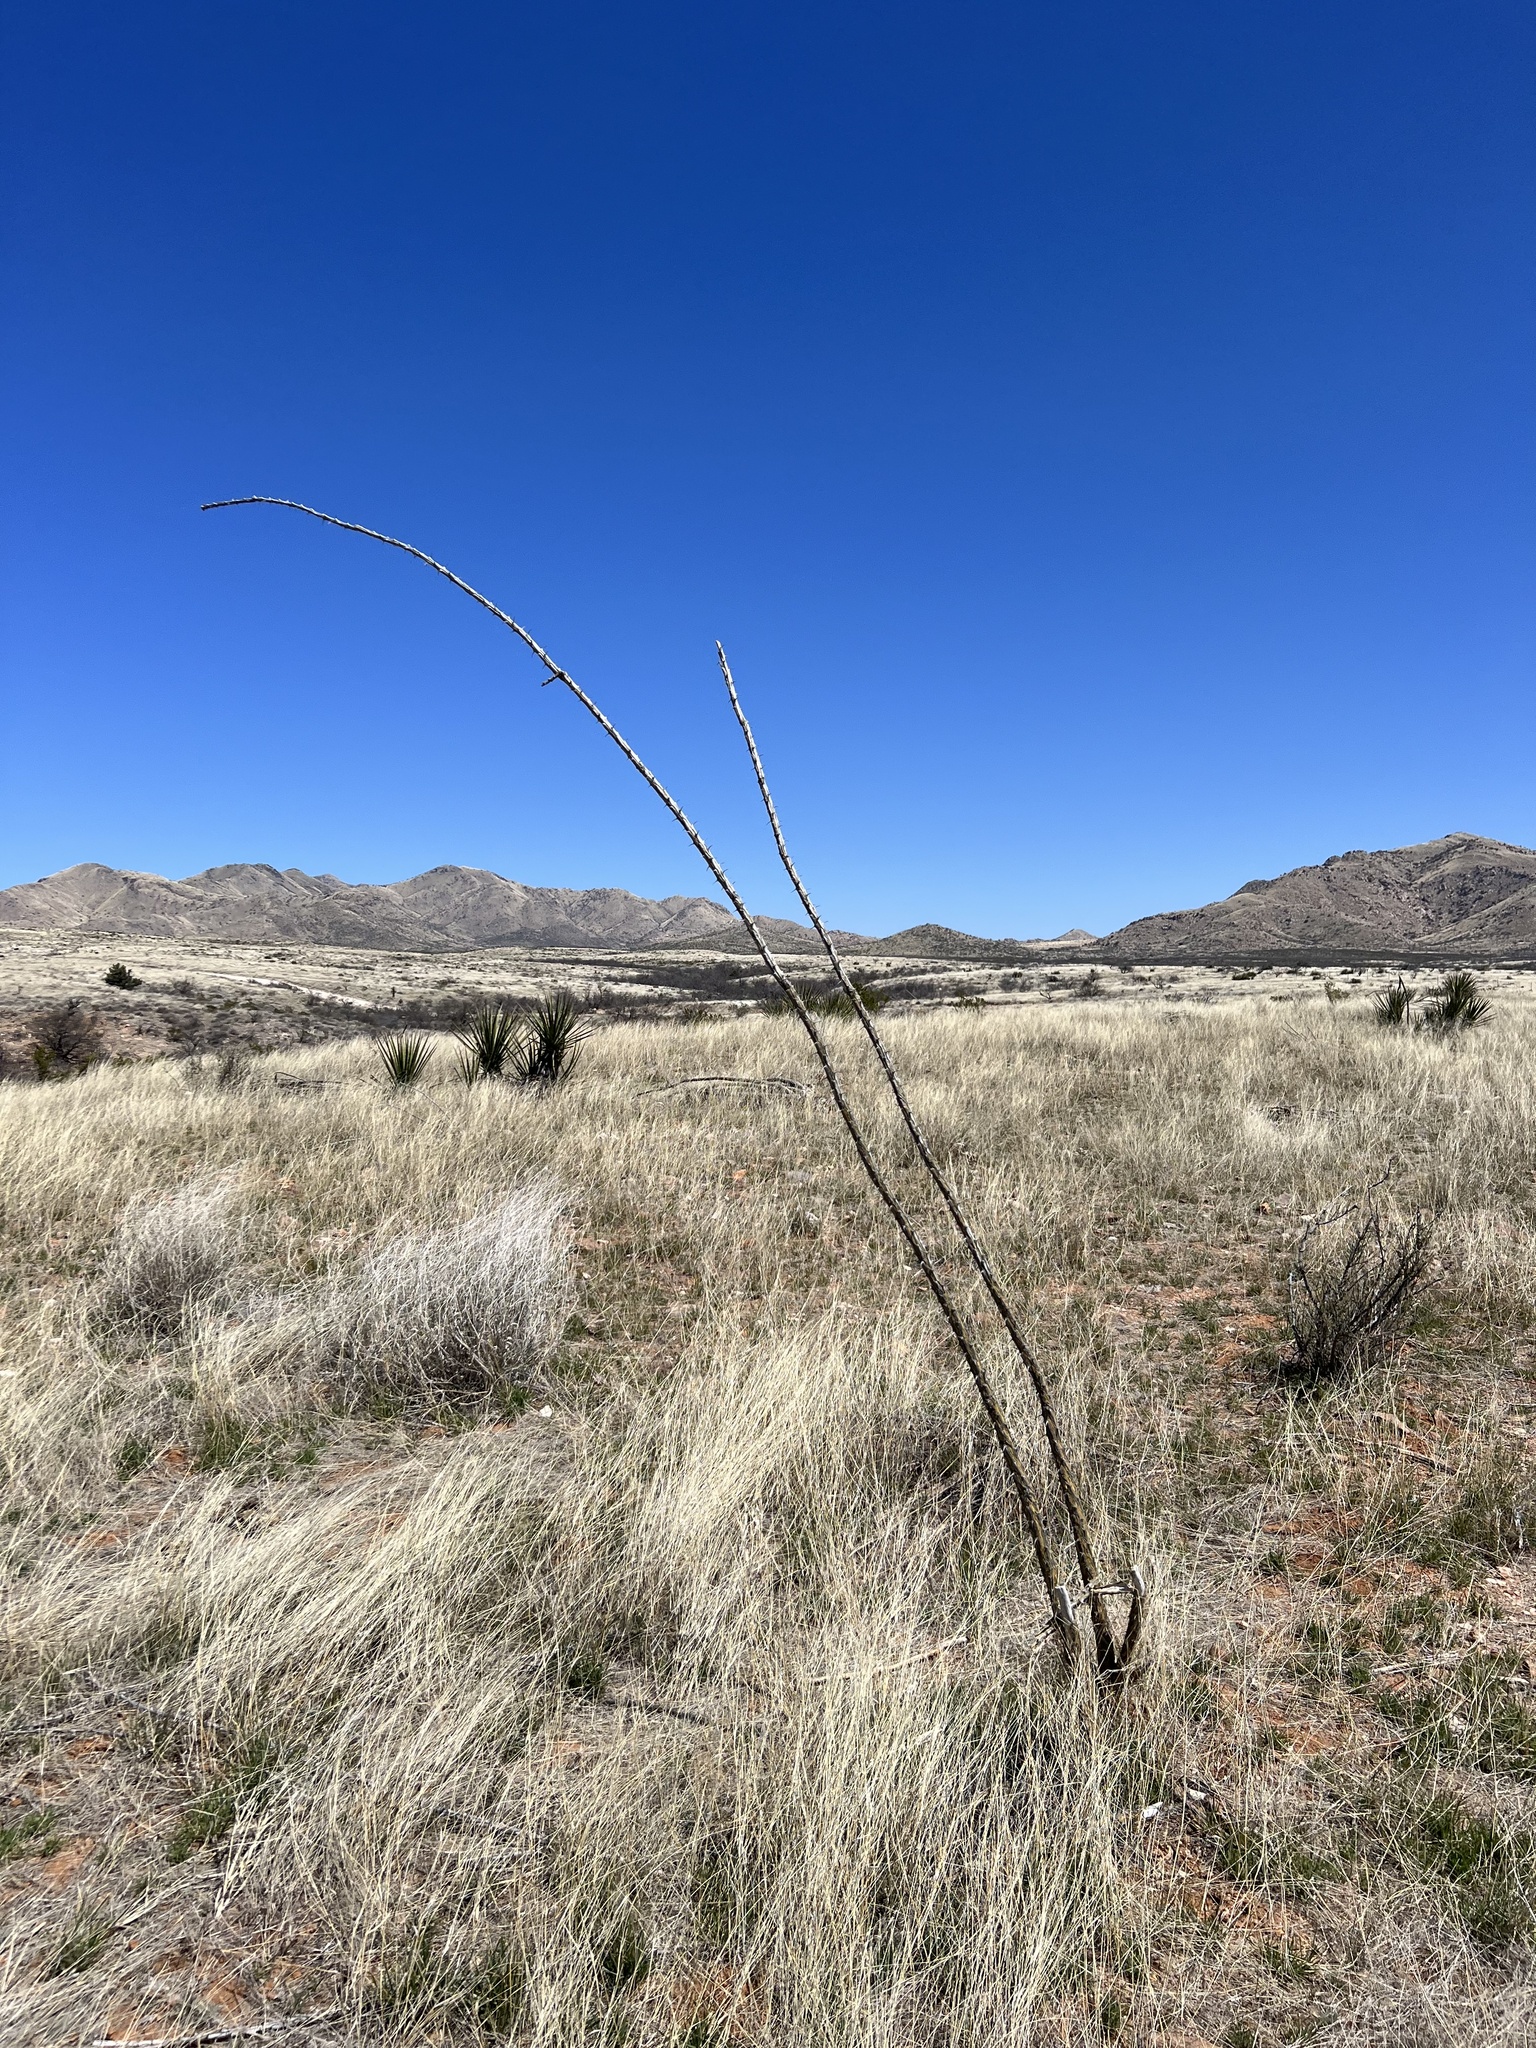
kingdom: Plantae
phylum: Tracheophyta
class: Magnoliopsida
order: Ericales
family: Fouquieriaceae
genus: Fouquieria
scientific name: Fouquieria splendens
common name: Vine-cactus
